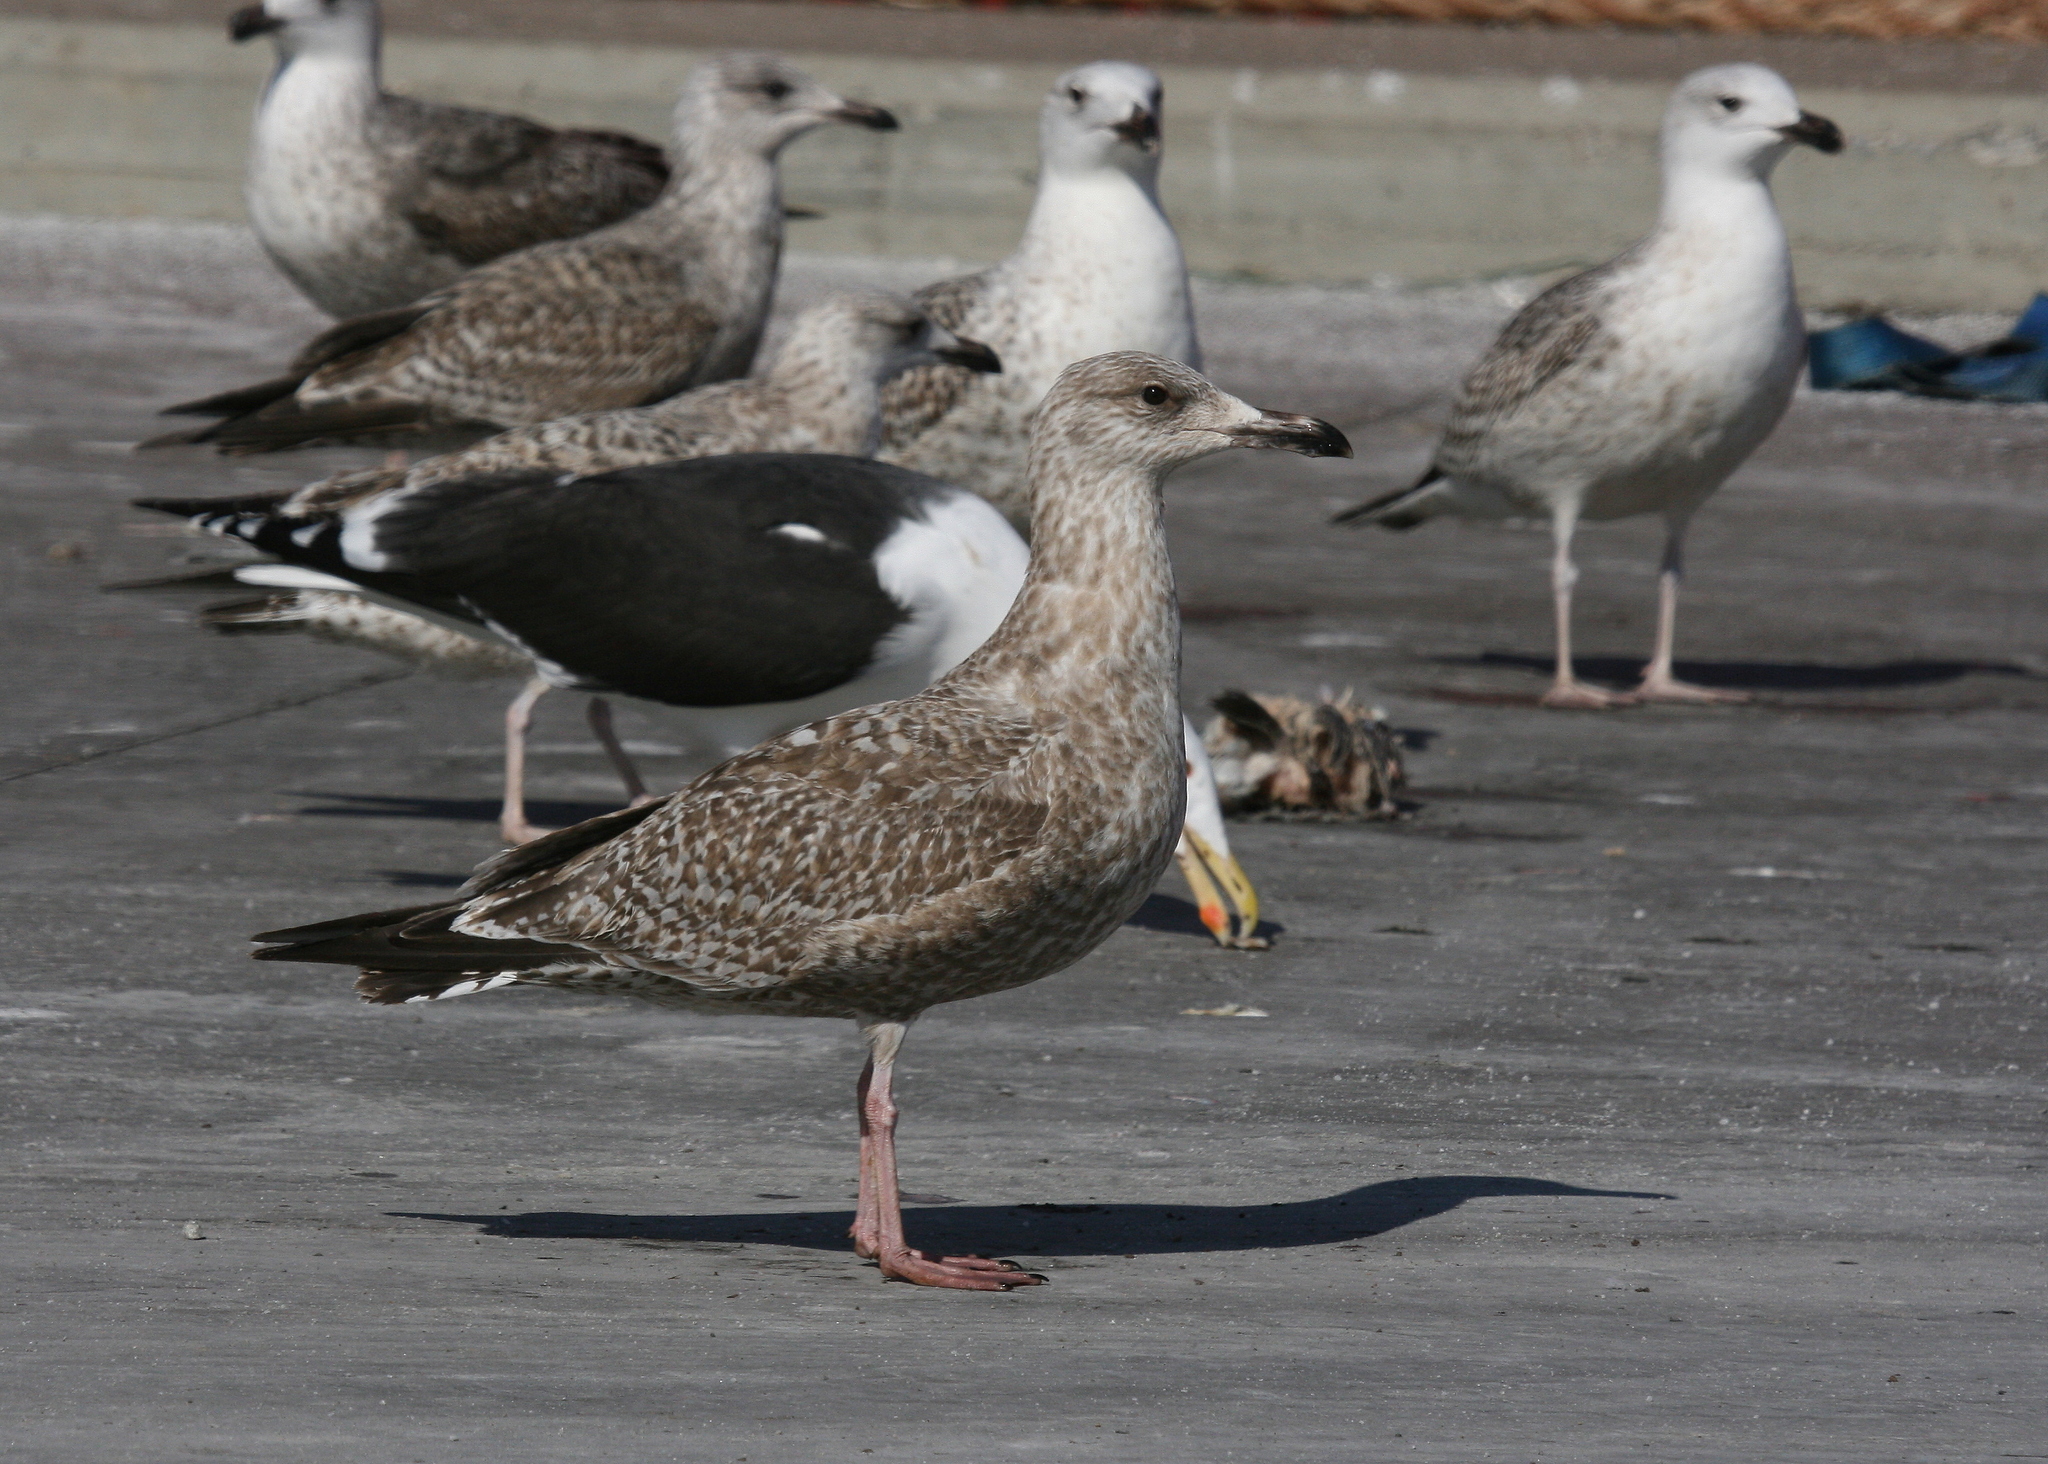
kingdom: Animalia
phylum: Chordata
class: Aves
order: Charadriiformes
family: Laridae
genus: Larus
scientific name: Larus argentatus
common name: Herring gull
